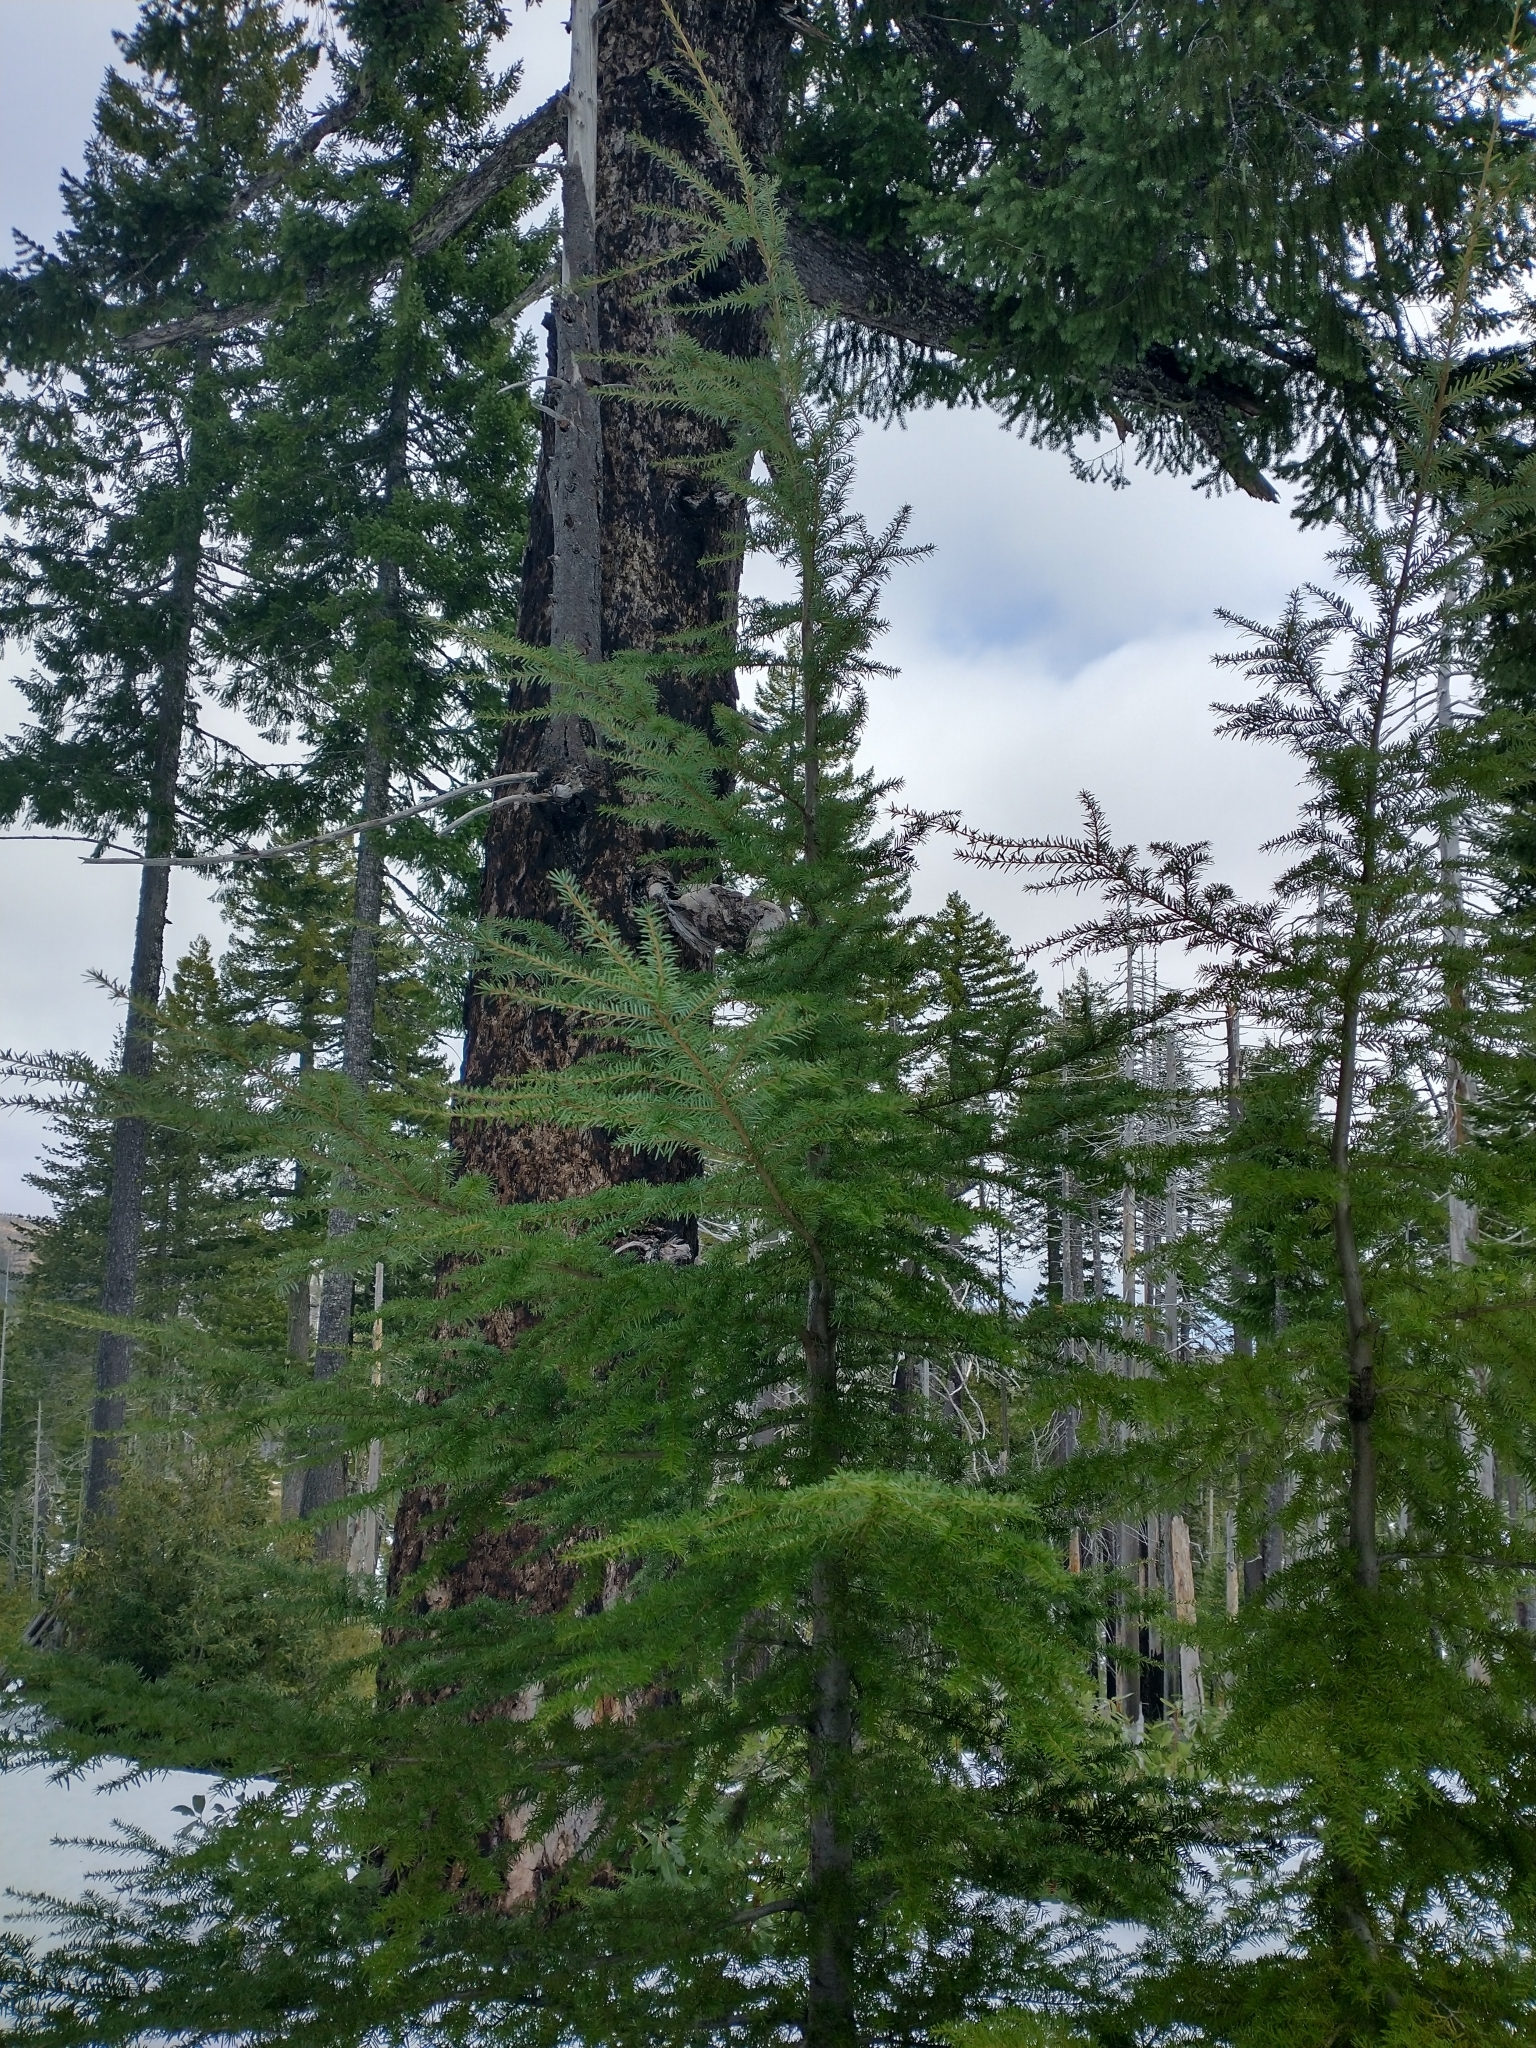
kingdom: Plantae
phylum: Tracheophyta
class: Pinopsida
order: Pinales
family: Pinaceae
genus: Tsuga
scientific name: Tsuga heterophylla
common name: Western hemlock
